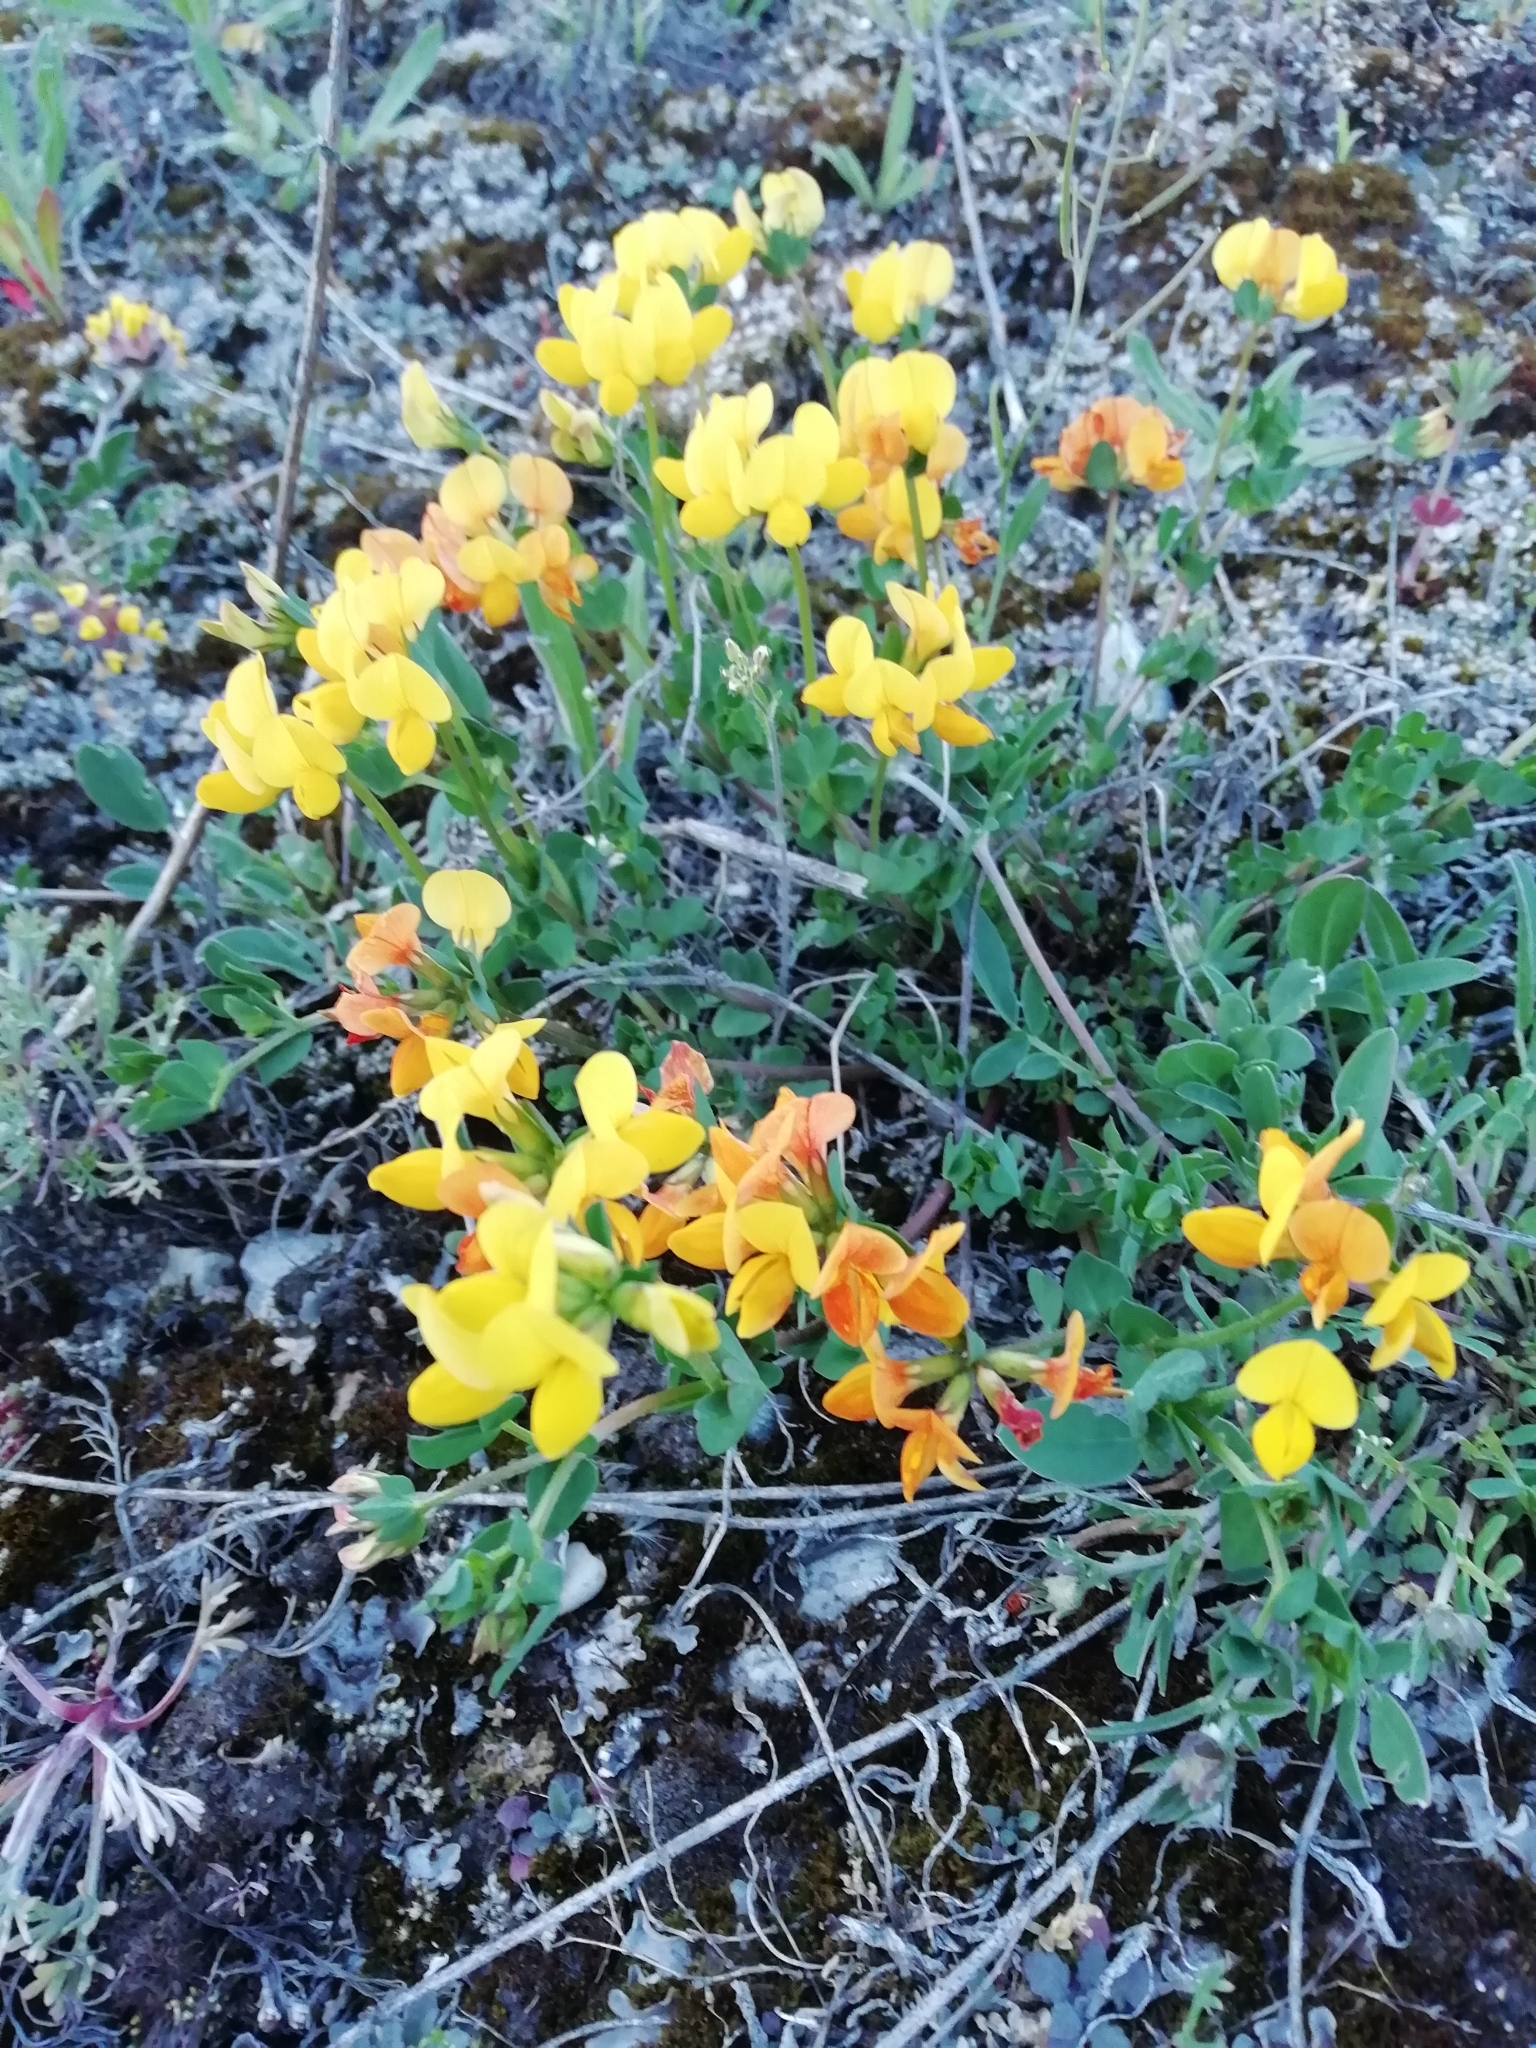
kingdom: Plantae
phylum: Tracheophyta
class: Magnoliopsida
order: Fabales
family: Fabaceae
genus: Lotus
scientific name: Lotus corniculatus
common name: Common bird's-foot-trefoil
